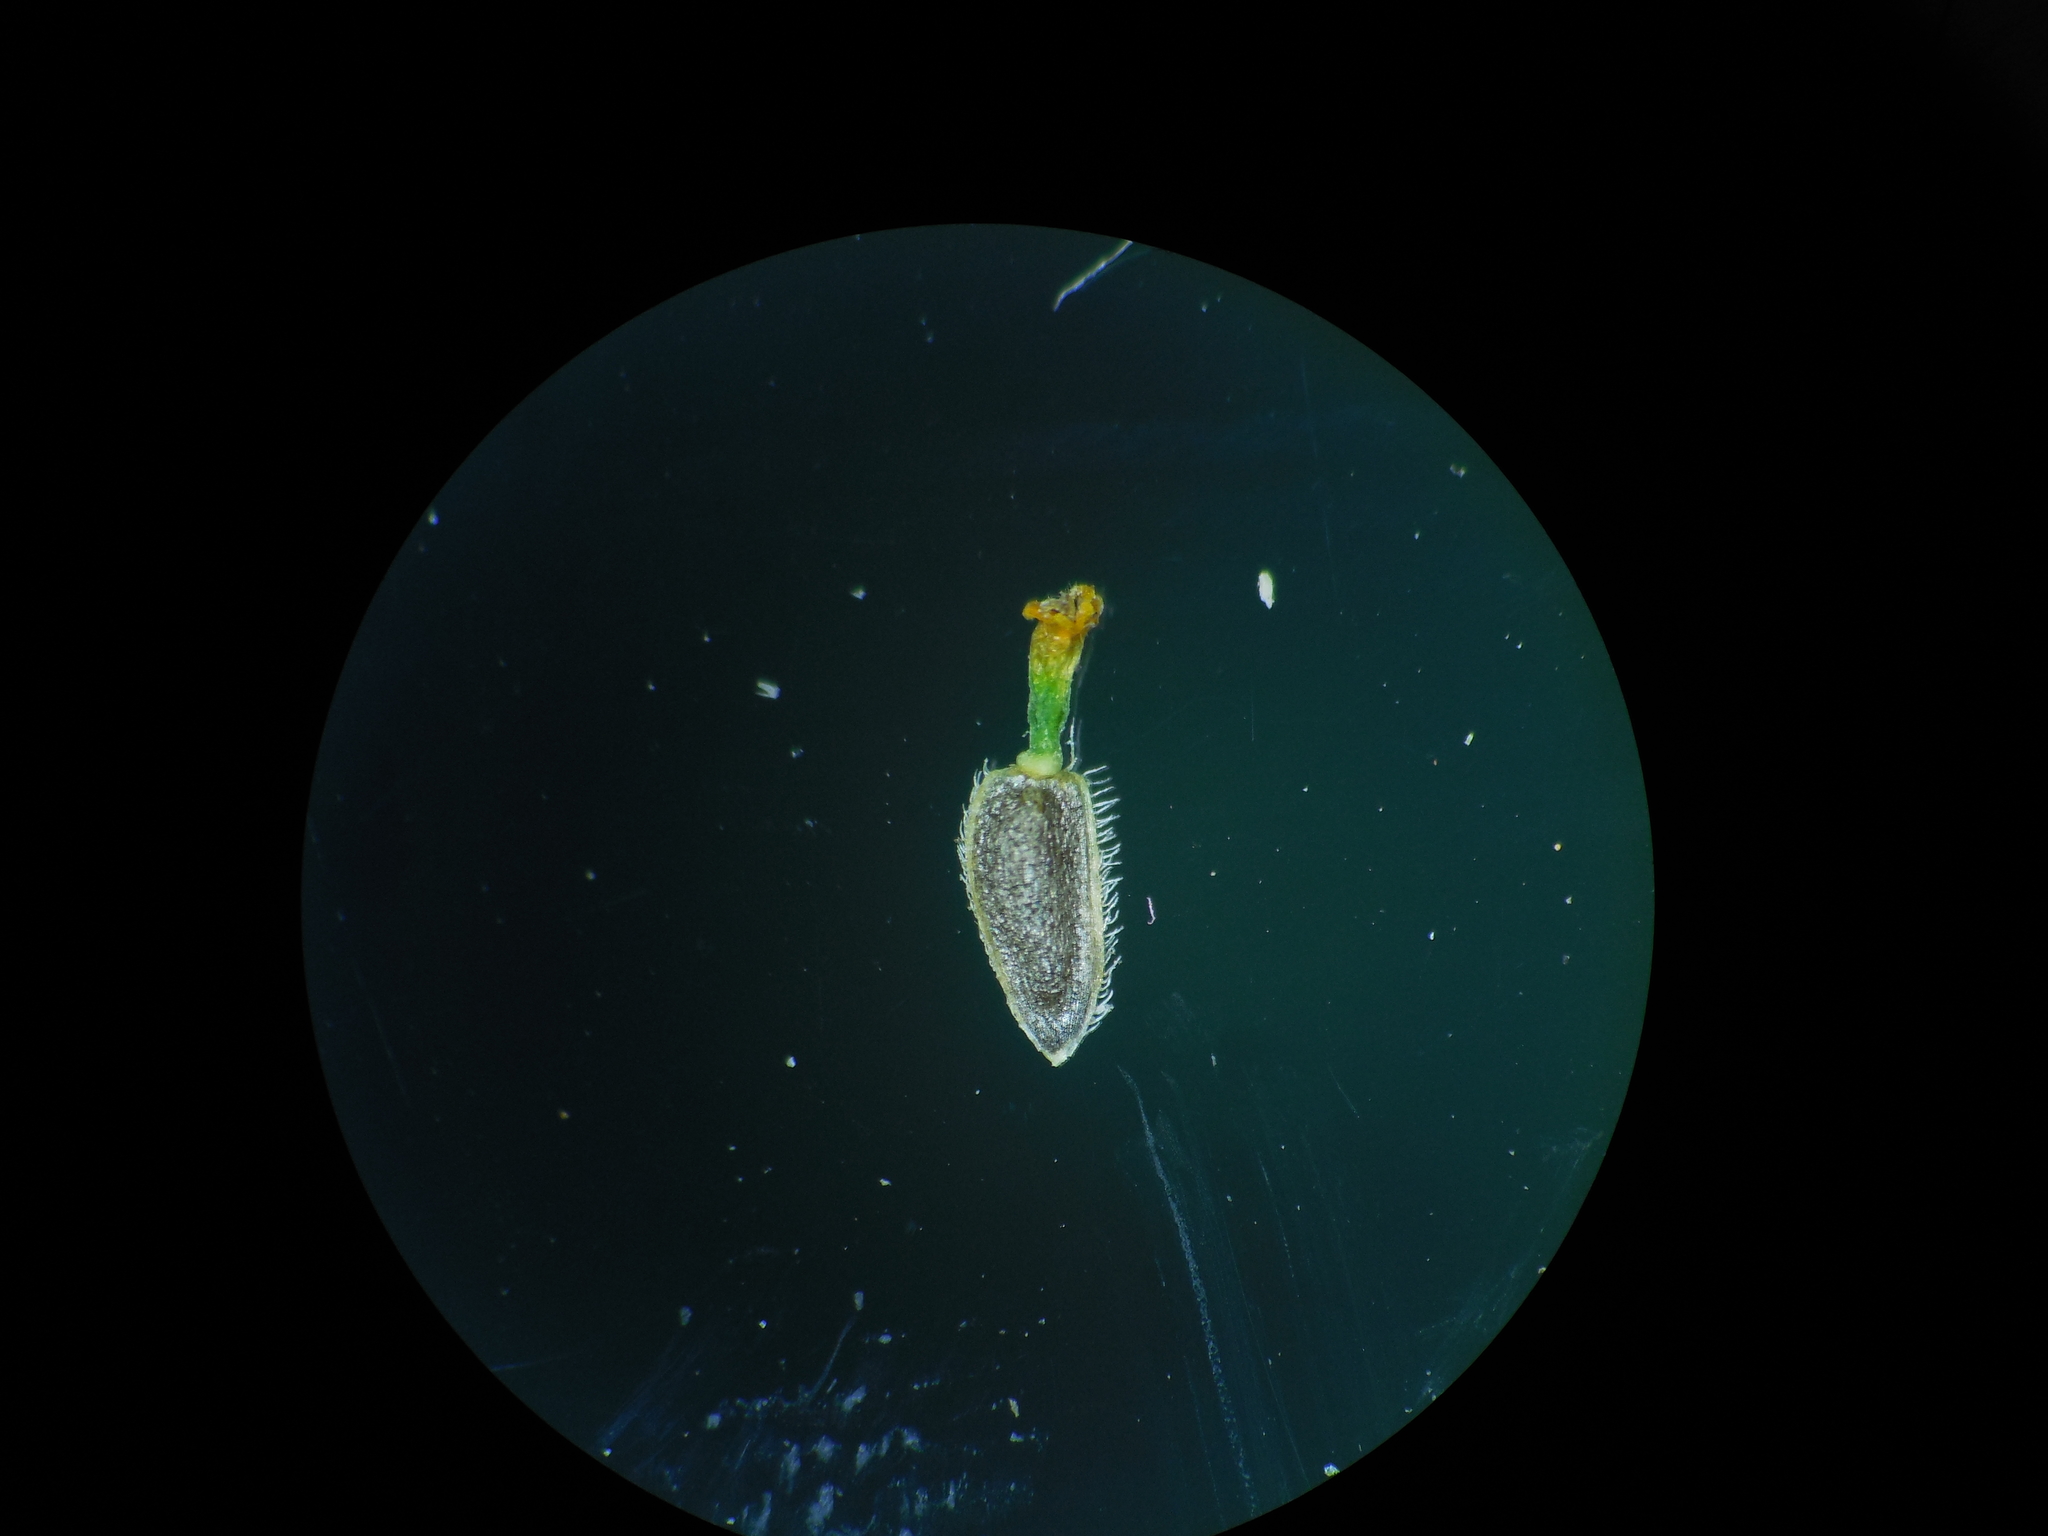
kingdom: Plantae
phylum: Tracheophyta
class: Magnoliopsida
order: Asterales
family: Asteraceae
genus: Acmella
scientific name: Acmella uliginosa
